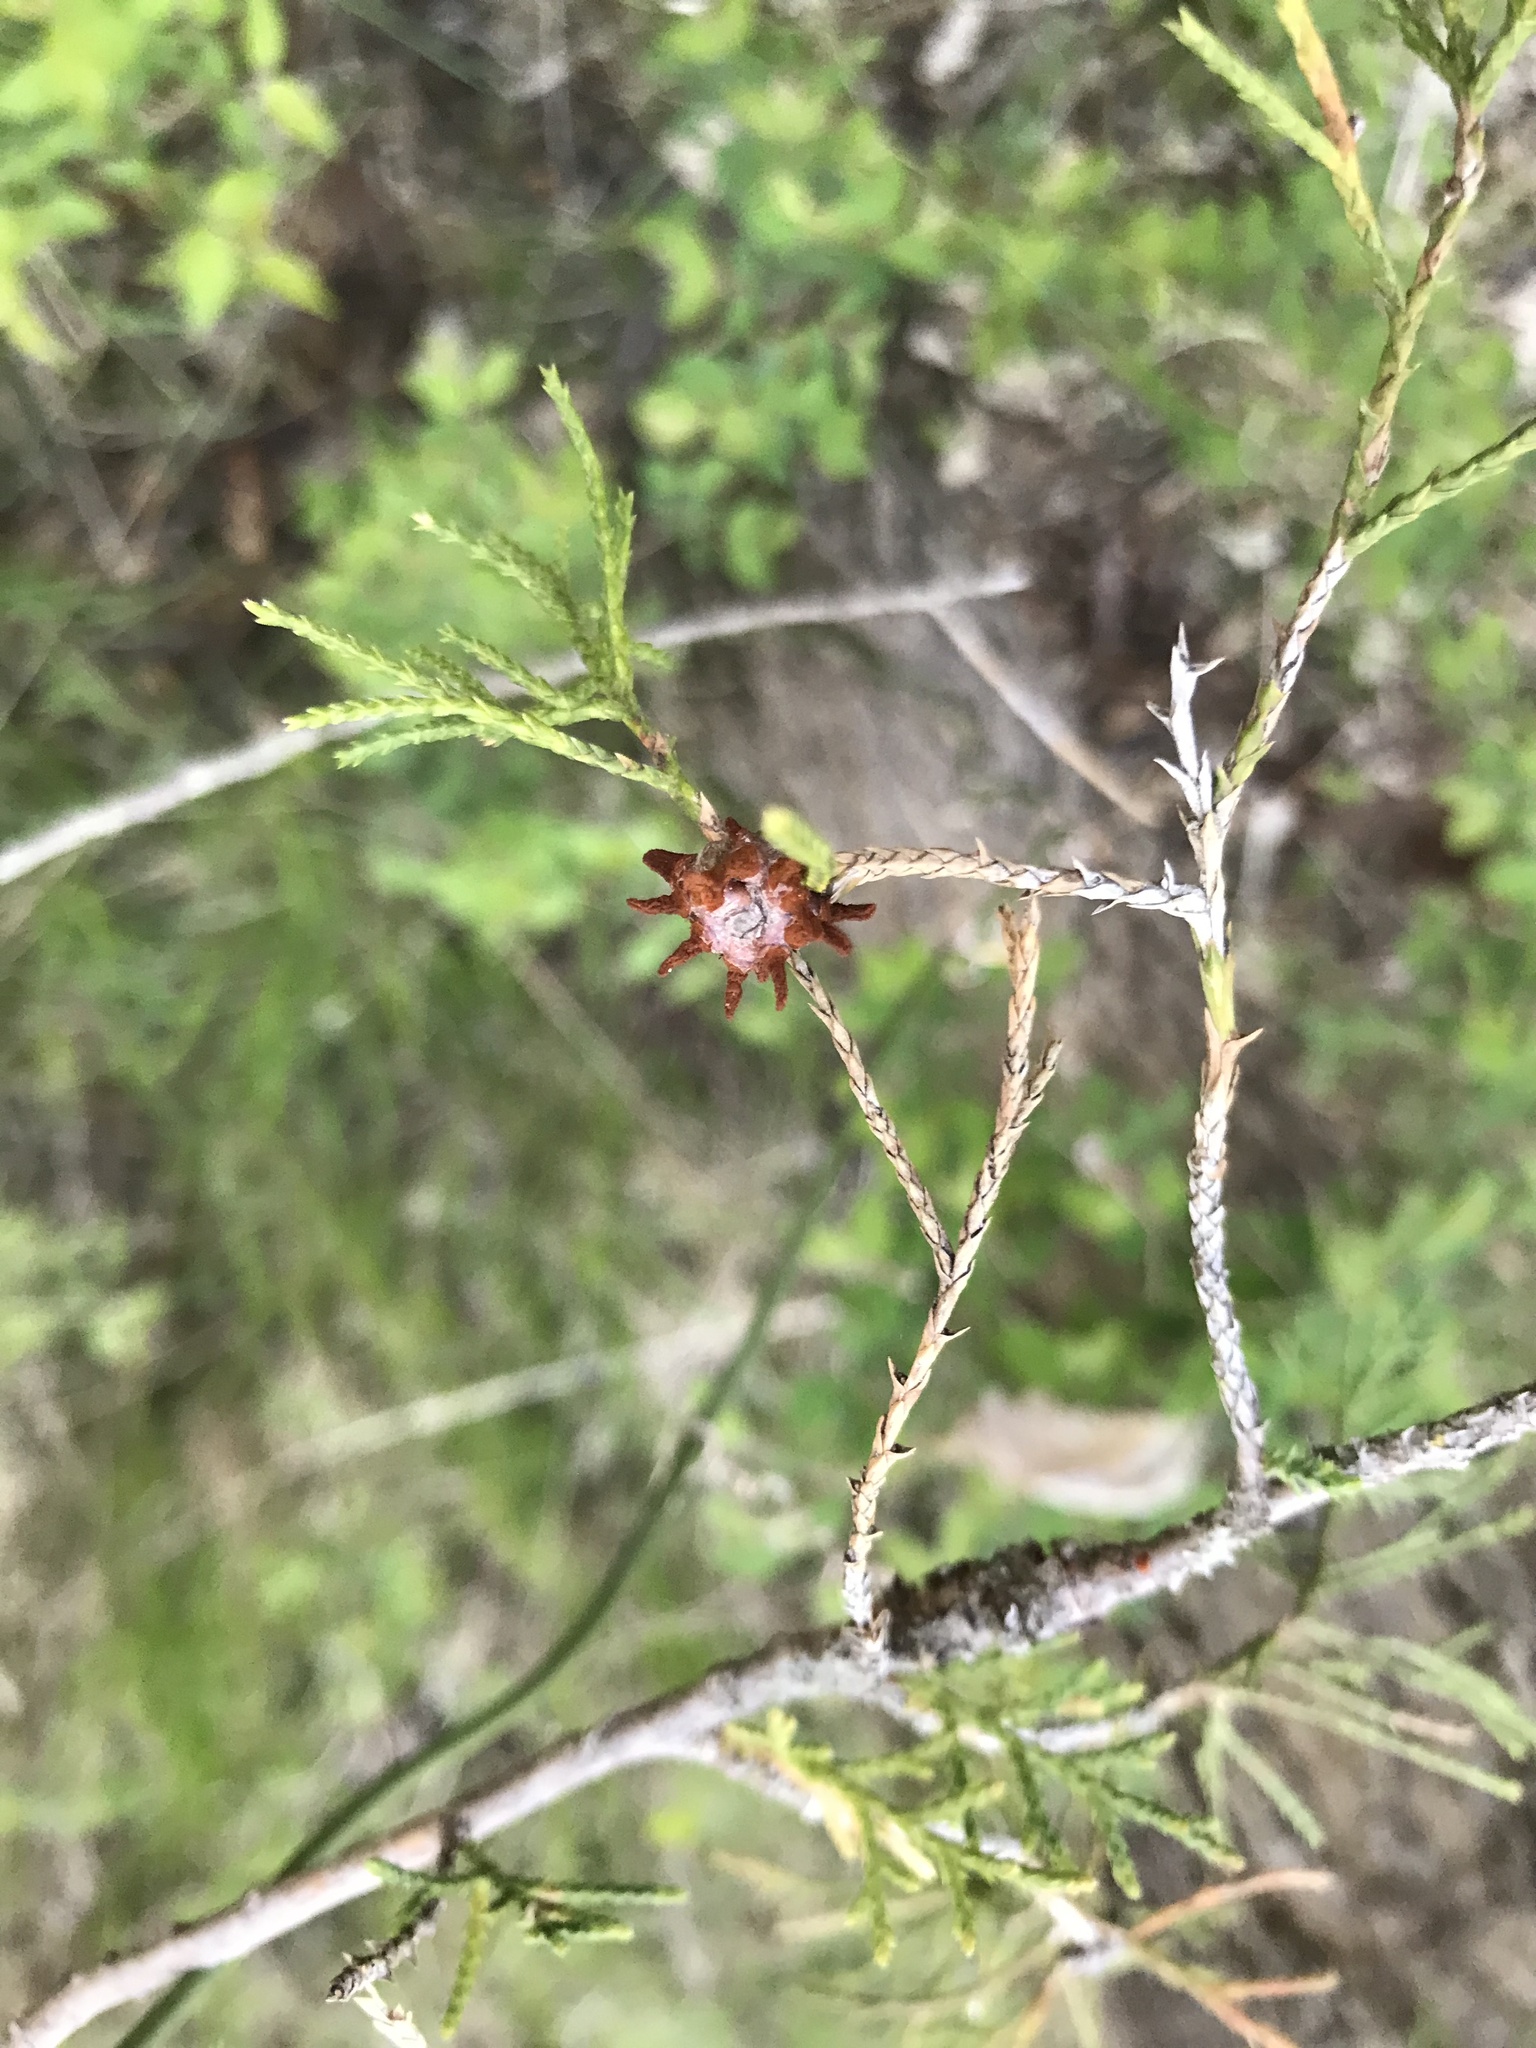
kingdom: Fungi
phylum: Basidiomycota
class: Pucciniomycetes
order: Pucciniales
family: Gymnosporangiaceae
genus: Gymnosporangium
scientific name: Gymnosporangium juniperi-virginianae
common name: Juniper-apple rust
